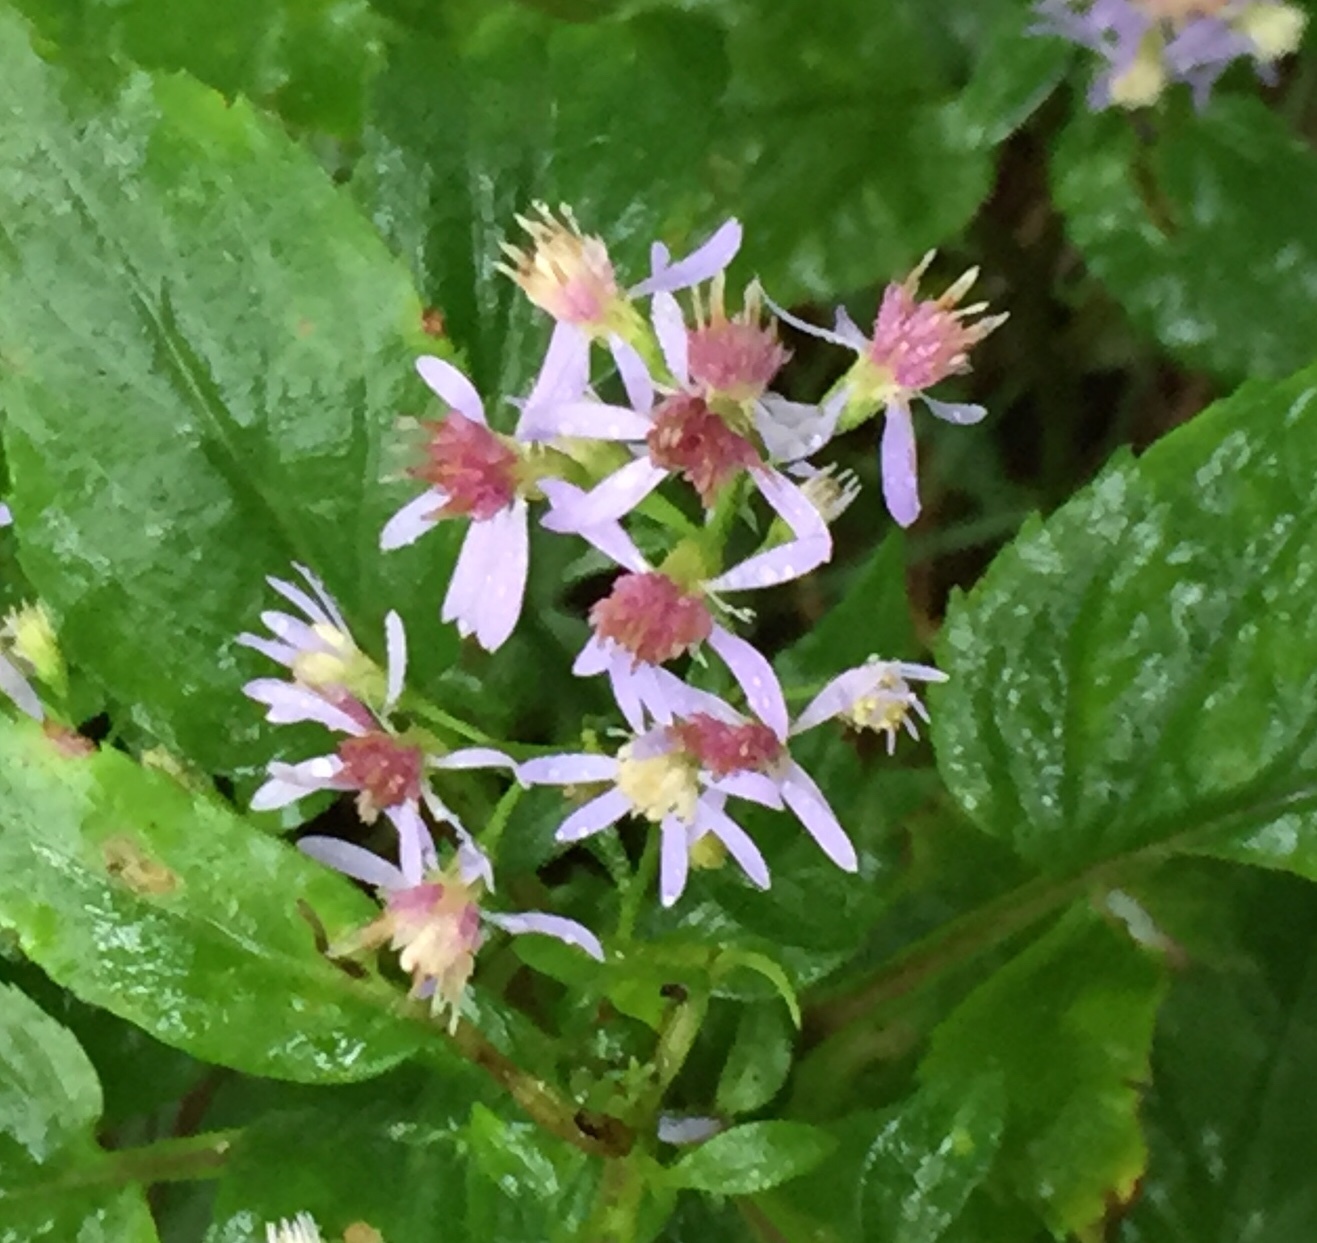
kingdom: Plantae
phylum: Tracheophyta
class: Magnoliopsida
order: Asterales
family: Asteraceae
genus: Symphyotrichum
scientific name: Symphyotrichum cordifolium
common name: Beeweed
